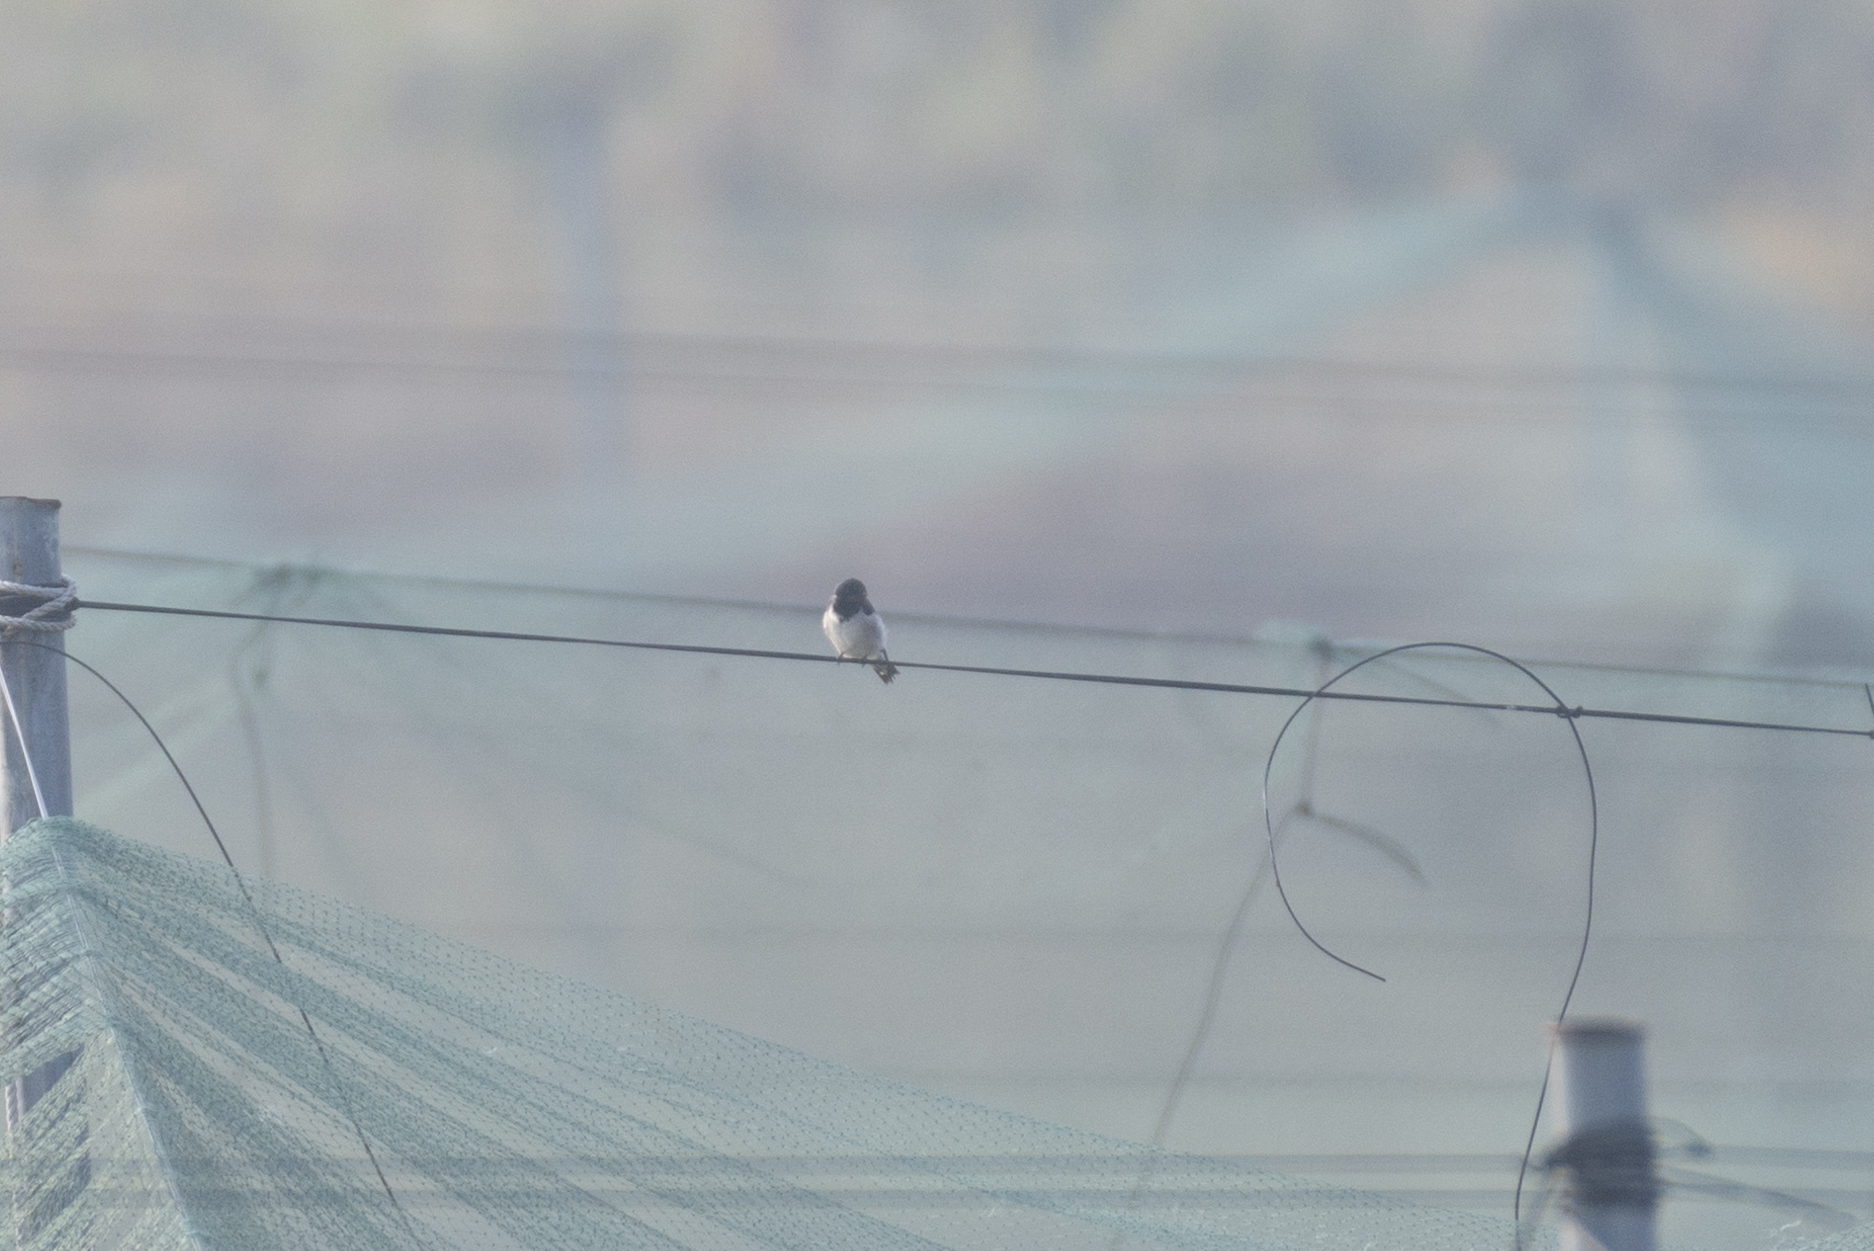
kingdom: Animalia
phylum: Chordata
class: Aves
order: Passeriformes
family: Hirundinidae
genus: Hirundo
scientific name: Hirundo rustica
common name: Barn swallow
